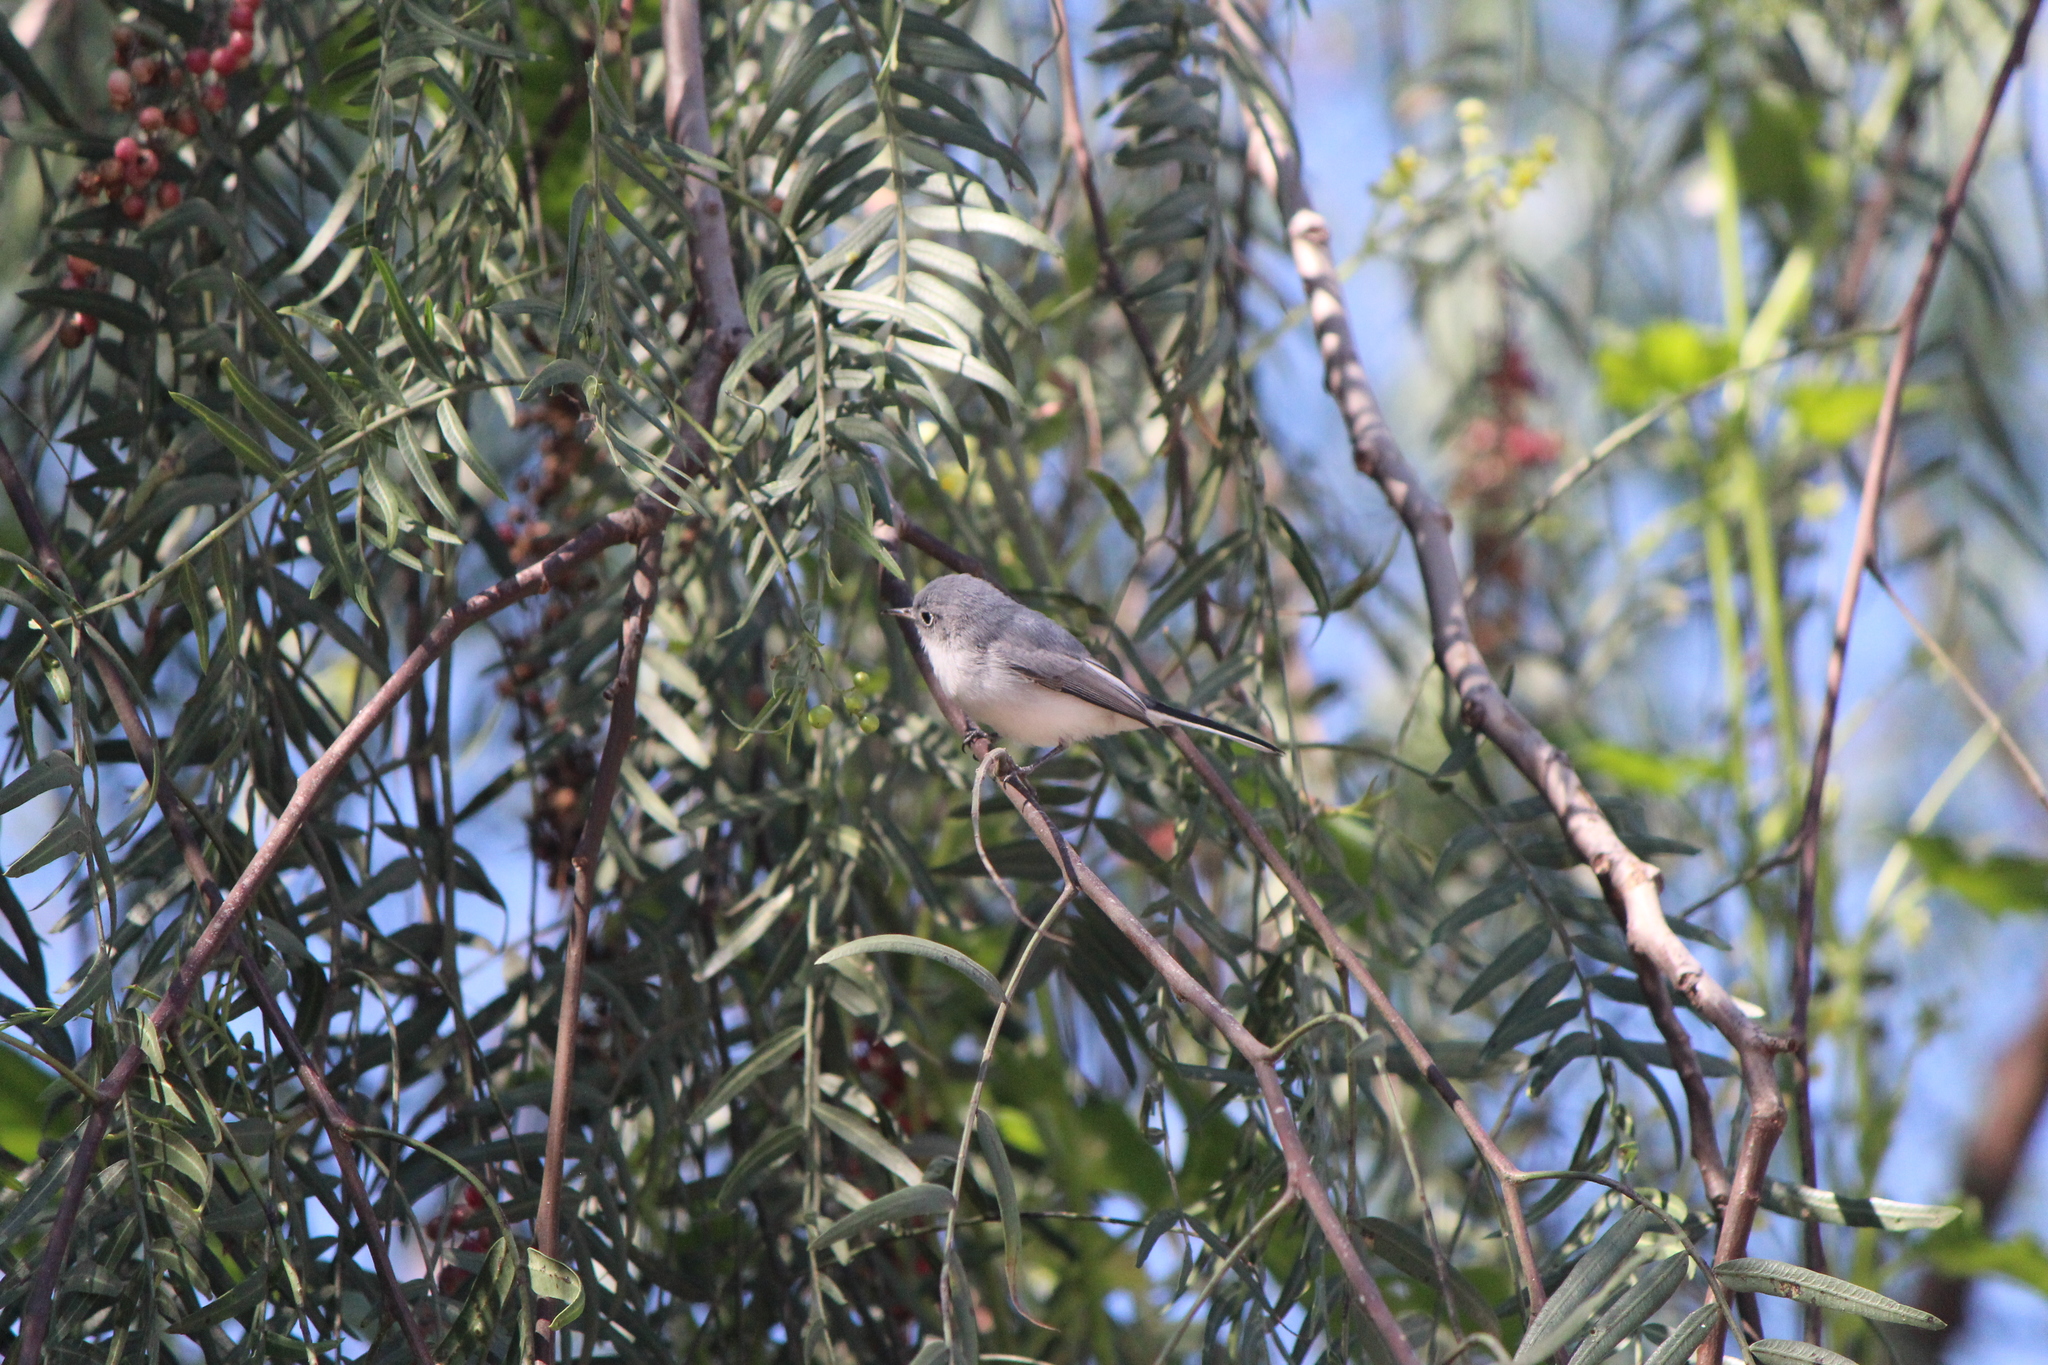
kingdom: Animalia
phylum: Chordata
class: Aves
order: Passeriformes
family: Polioptilidae
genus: Polioptila
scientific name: Polioptila caerulea
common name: Blue-gray gnatcatcher
